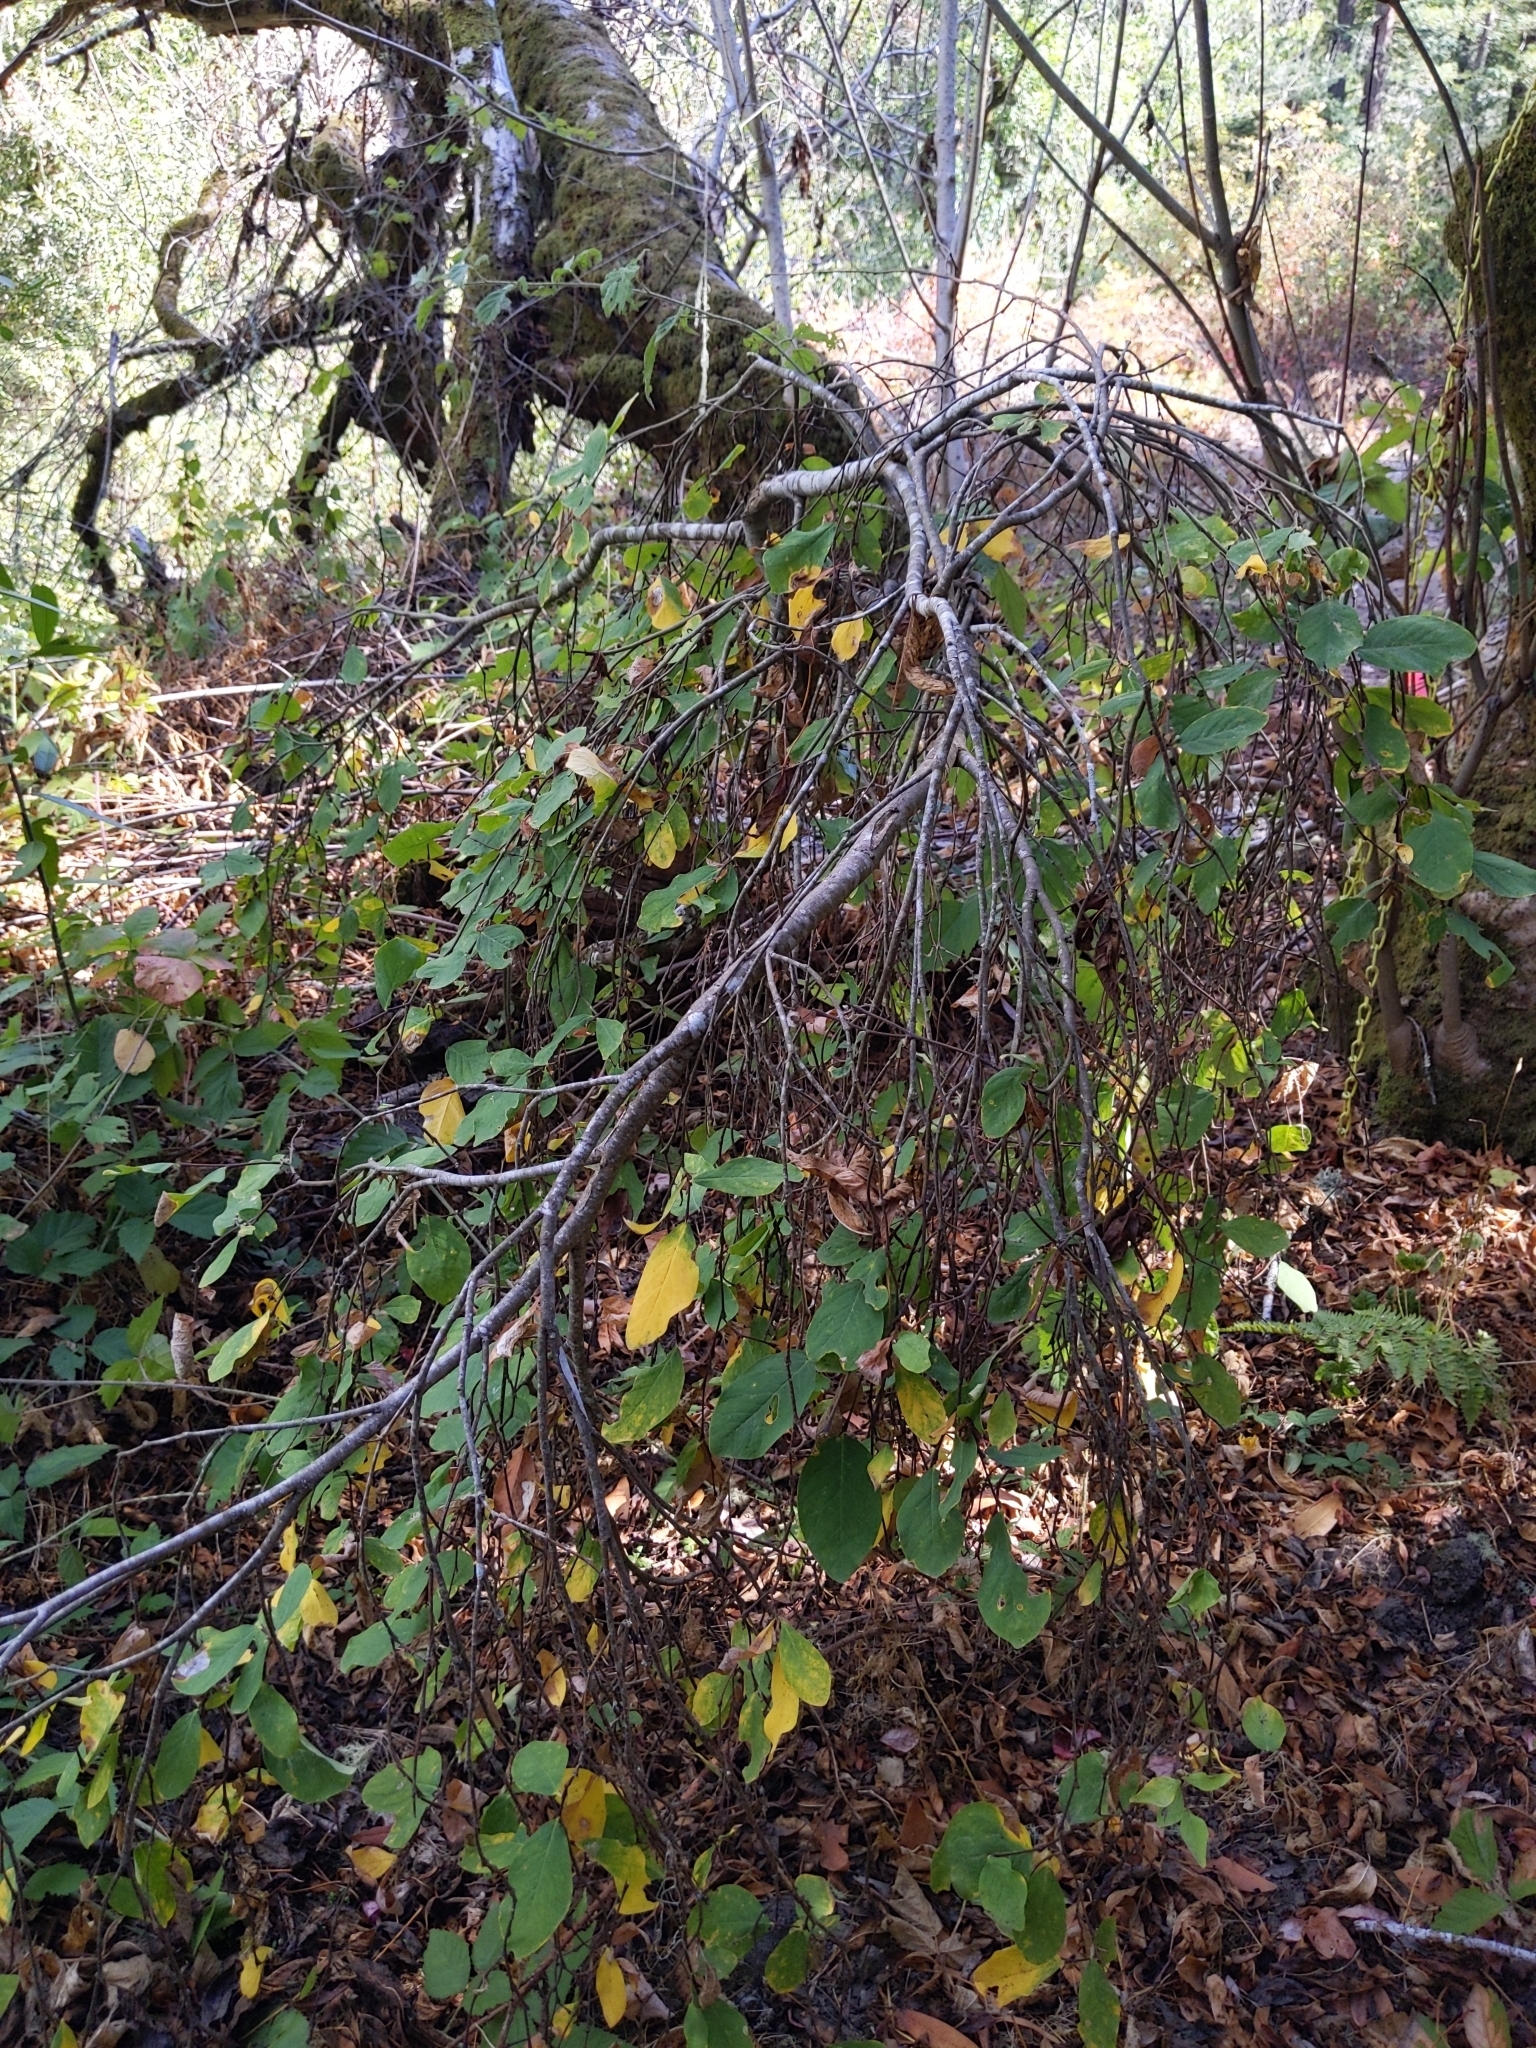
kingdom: Plantae
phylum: Tracheophyta
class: Magnoliopsida
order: Malvales
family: Thymelaeaceae
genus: Dirca
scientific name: Dirca occidentalis
